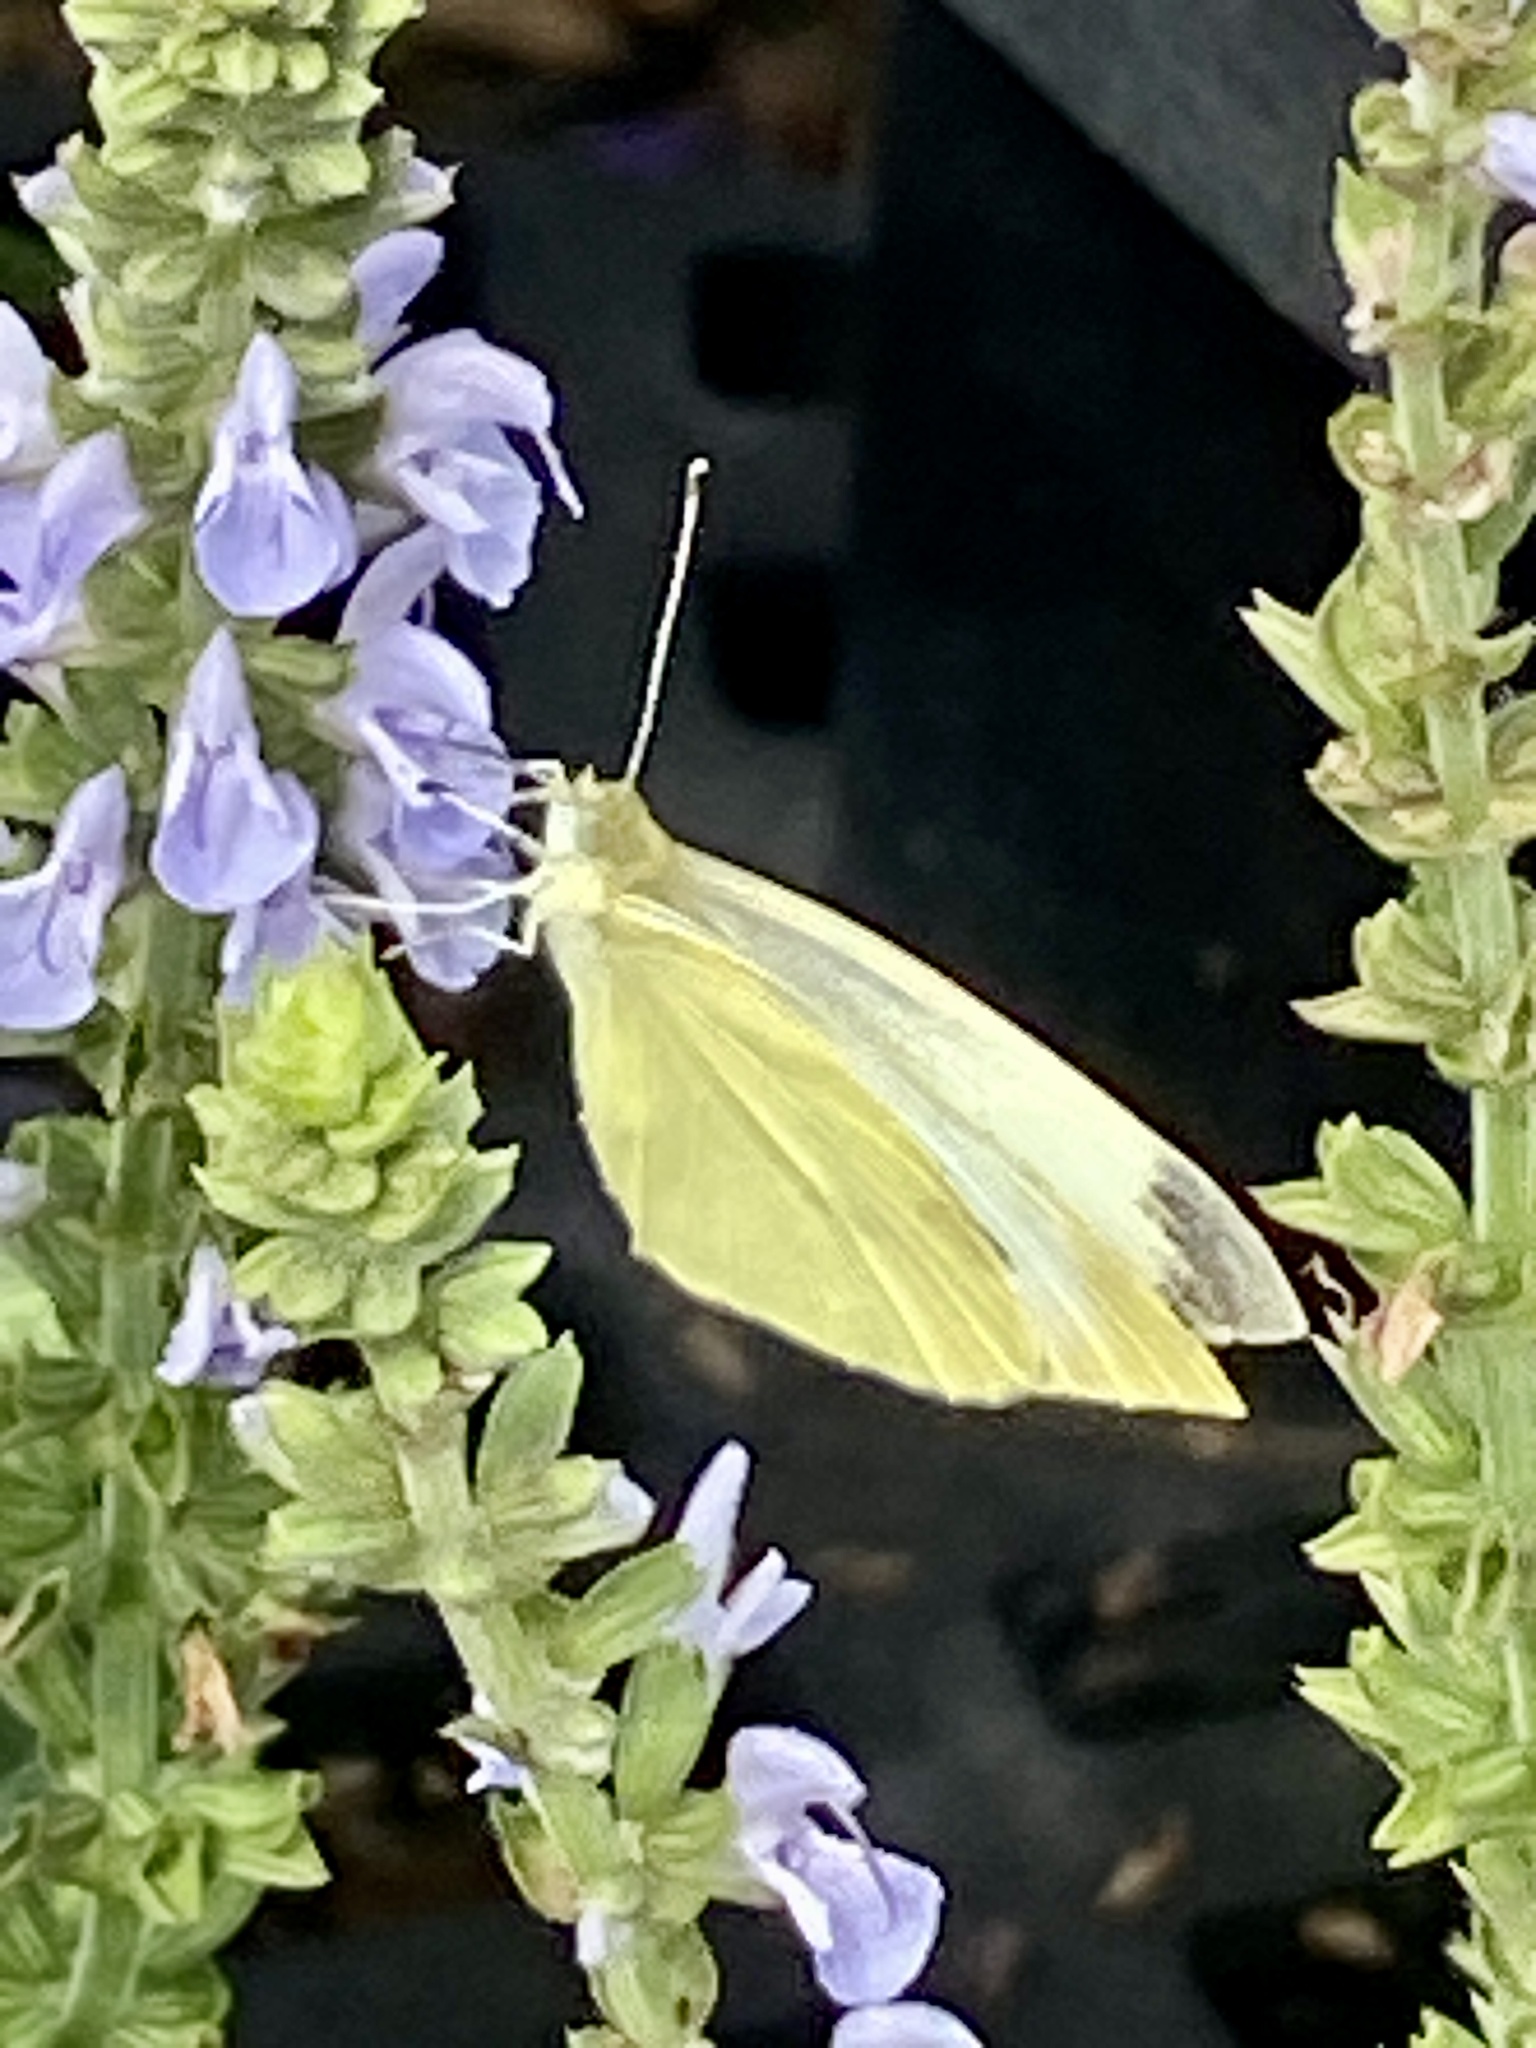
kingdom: Animalia
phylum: Arthropoda
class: Insecta
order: Lepidoptera
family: Pieridae
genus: Pieris
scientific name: Pieris rapae
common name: Small white
